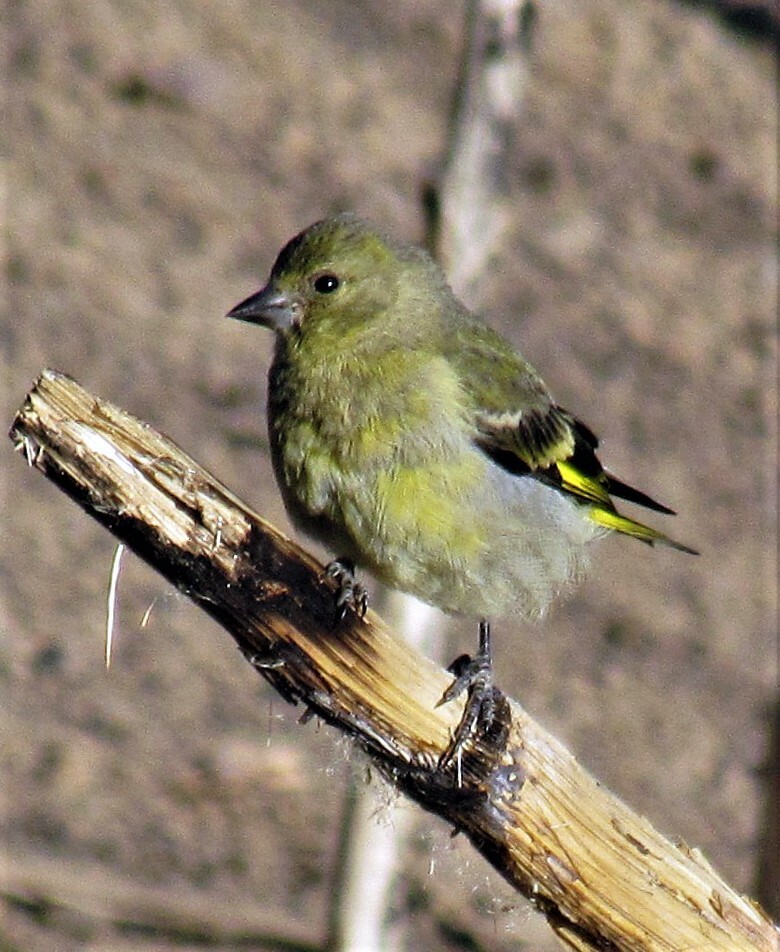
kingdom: Animalia
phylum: Chordata
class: Aves
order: Passeriformes
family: Fringillidae
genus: Spinus
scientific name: Spinus magellanicus
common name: Hooded siskin
